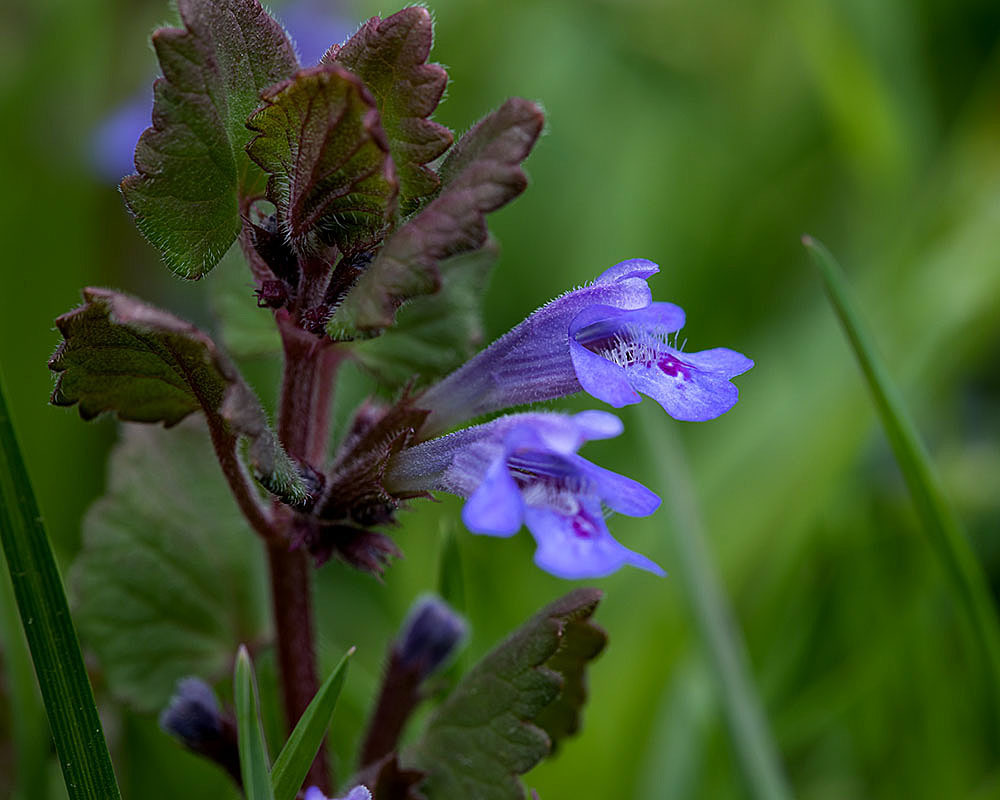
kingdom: Plantae
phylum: Tracheophyta
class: Magnoliopsida
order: Lamiales
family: Lamiaceae
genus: Glechoma
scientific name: Glechoma hederacea
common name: Ground ivy
